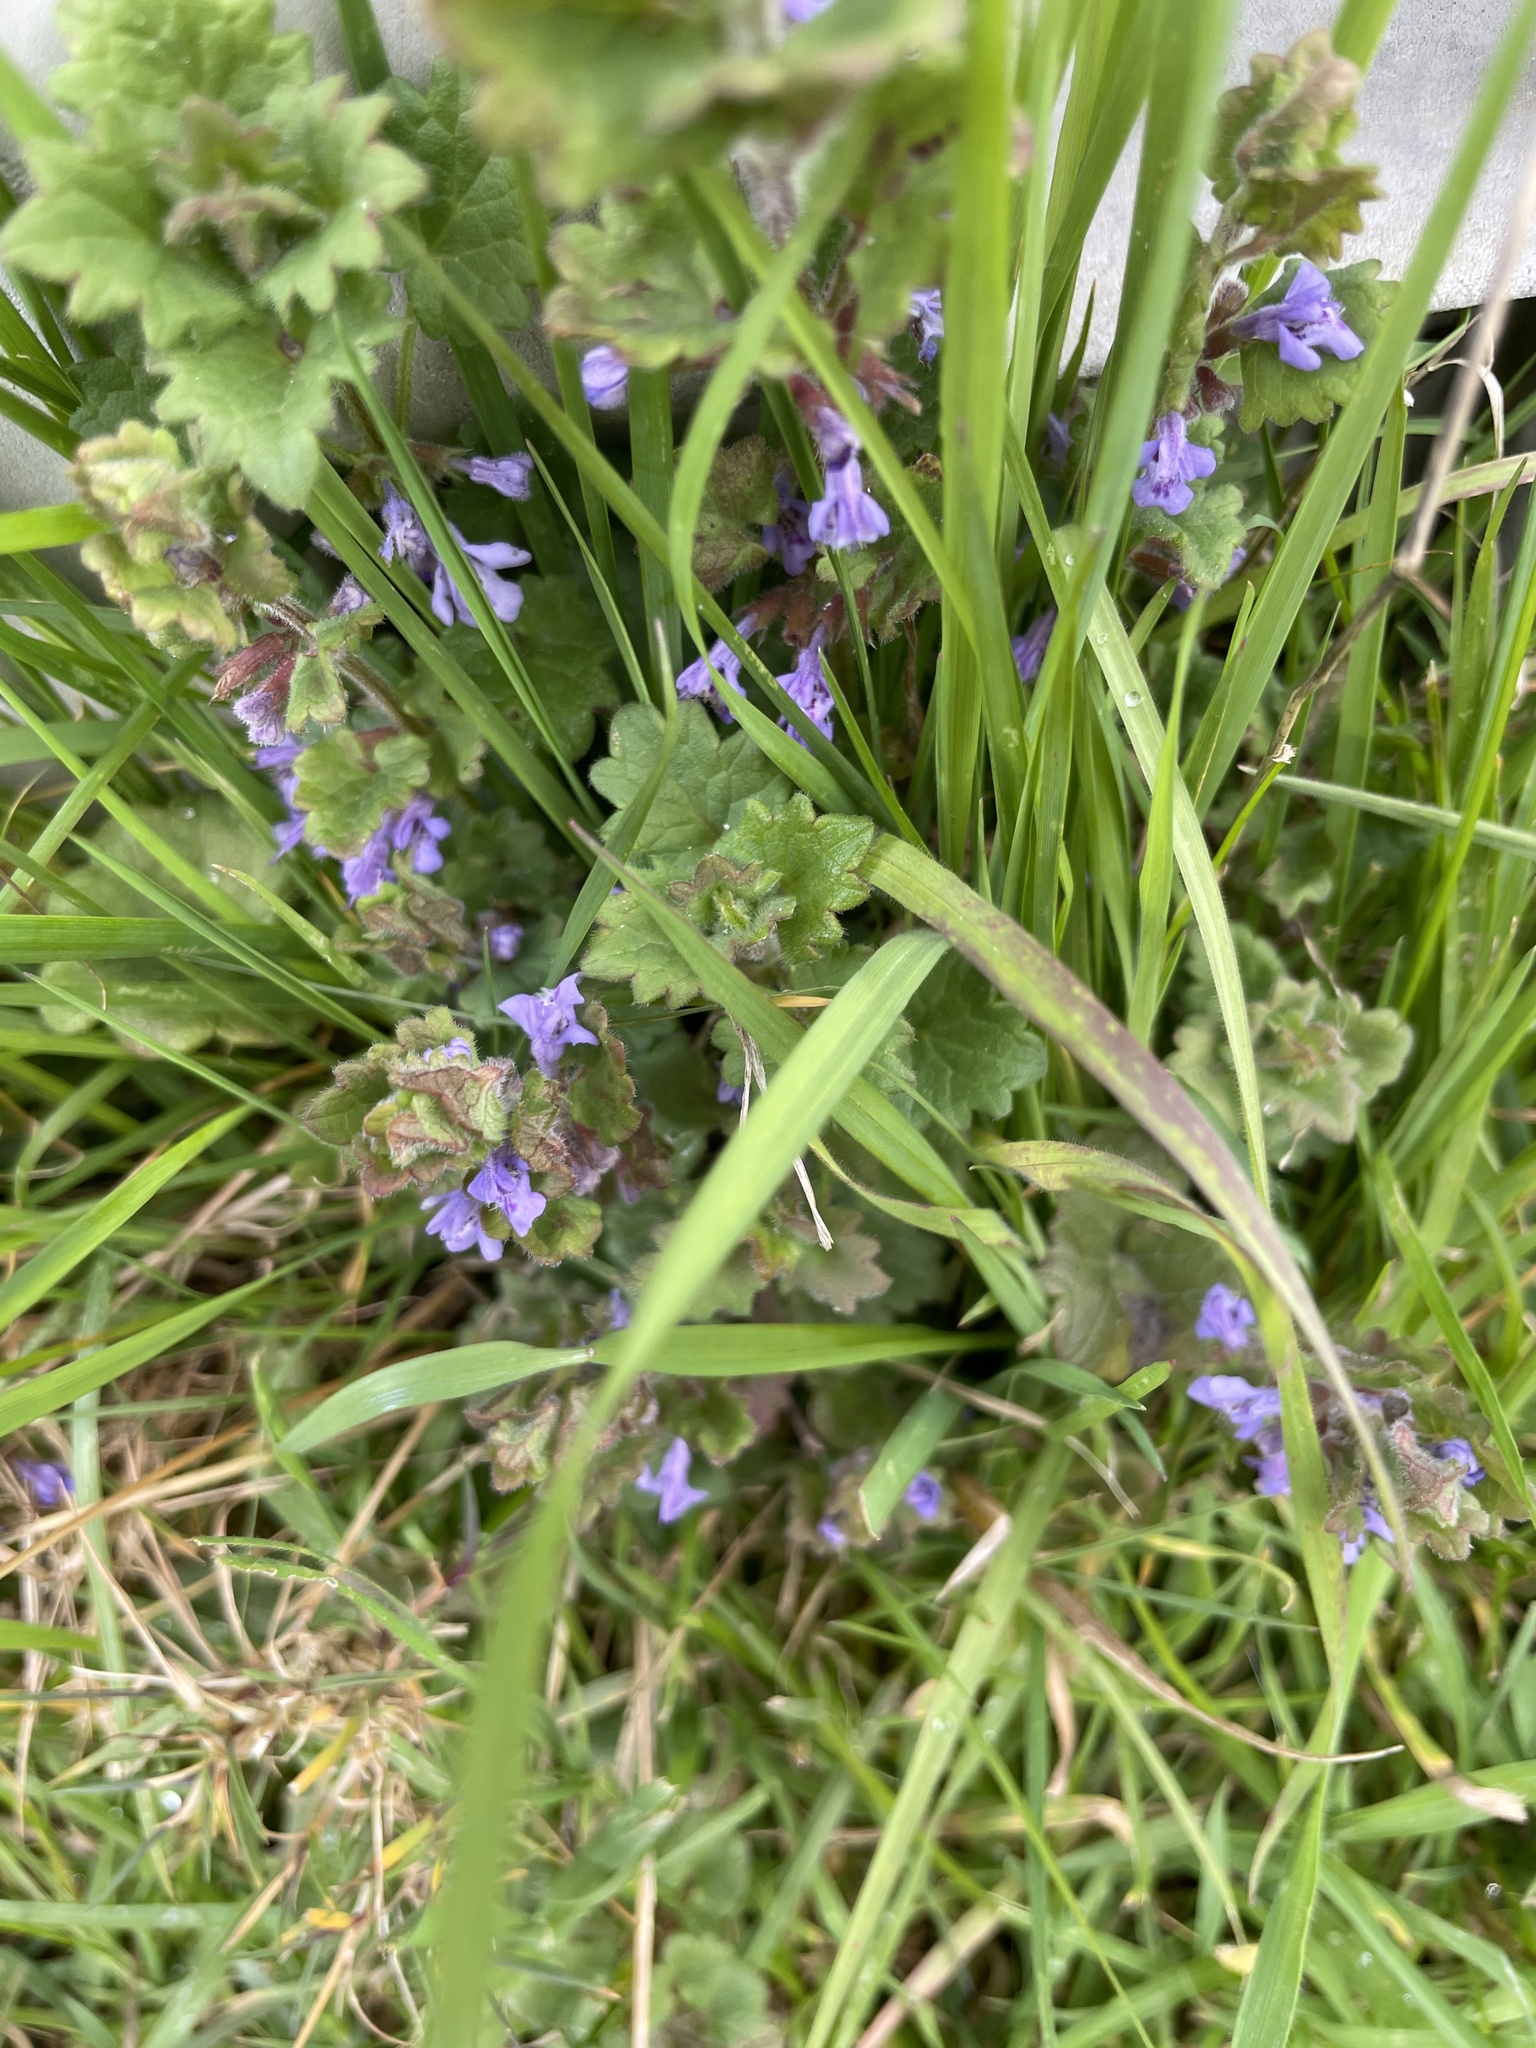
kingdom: Plantae
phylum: Tracheophyta
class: Magnoliopsida
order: Lamiales
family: Lamiaceae
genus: Glechoma
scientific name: Glechoma hederacea
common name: Ground ivy
